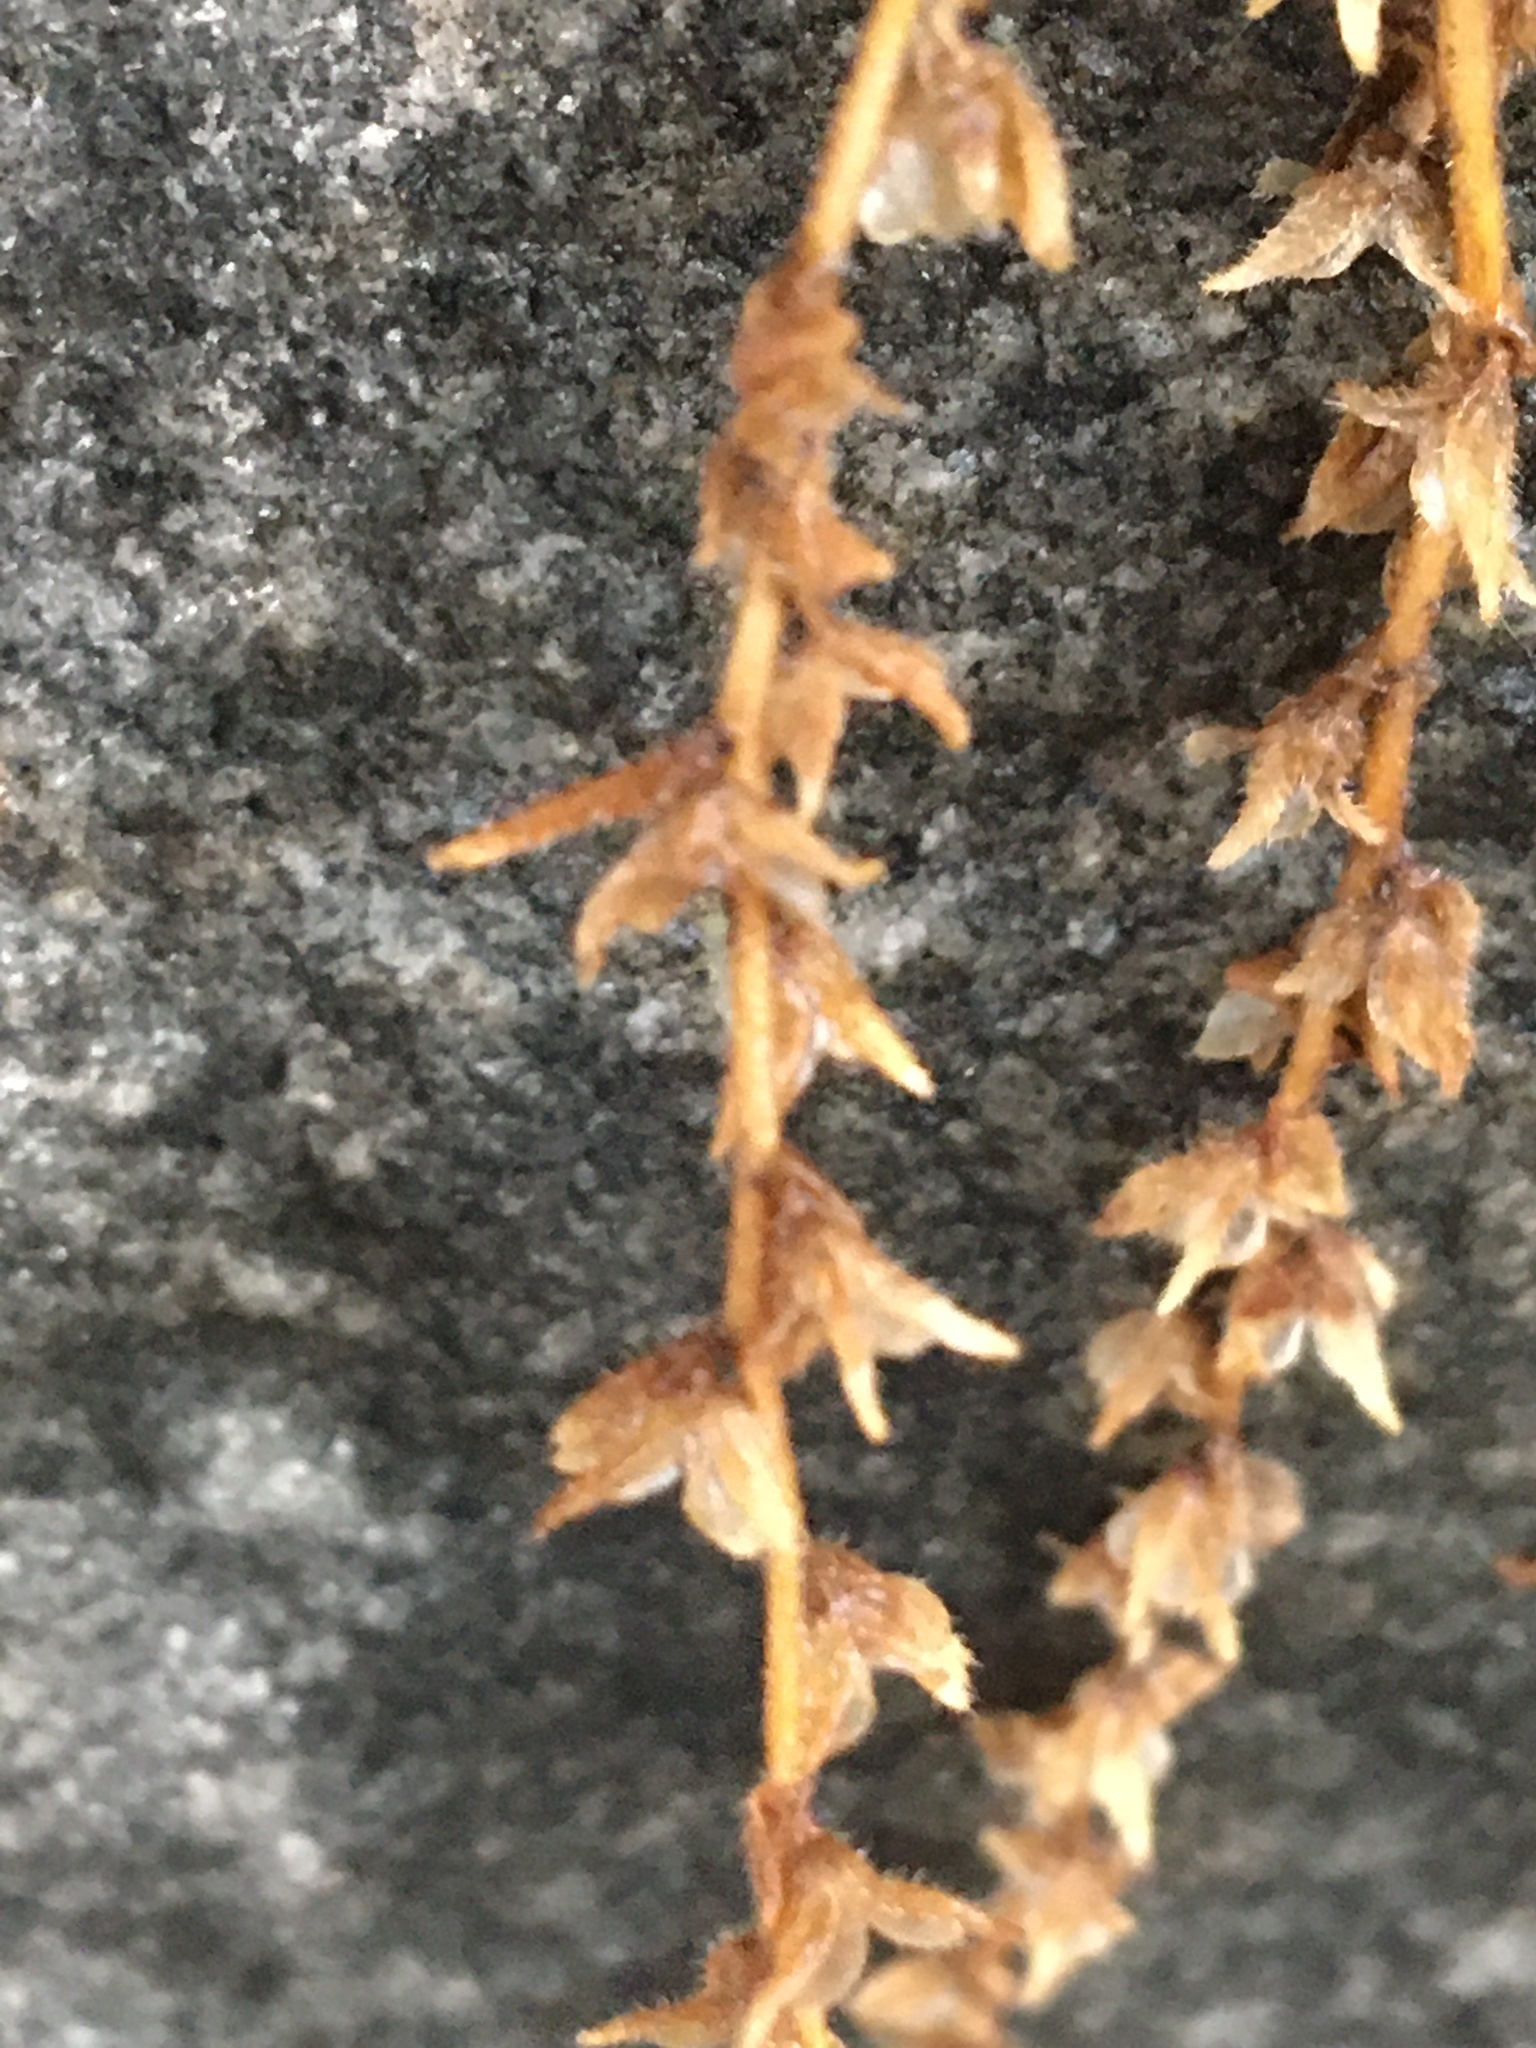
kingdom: Plantae
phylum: Tracheophyta
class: Magnoliopsida
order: Lamiales
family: Plantaginaceae
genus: Veronica
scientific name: Veronica arvensis
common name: Corn speedwell
